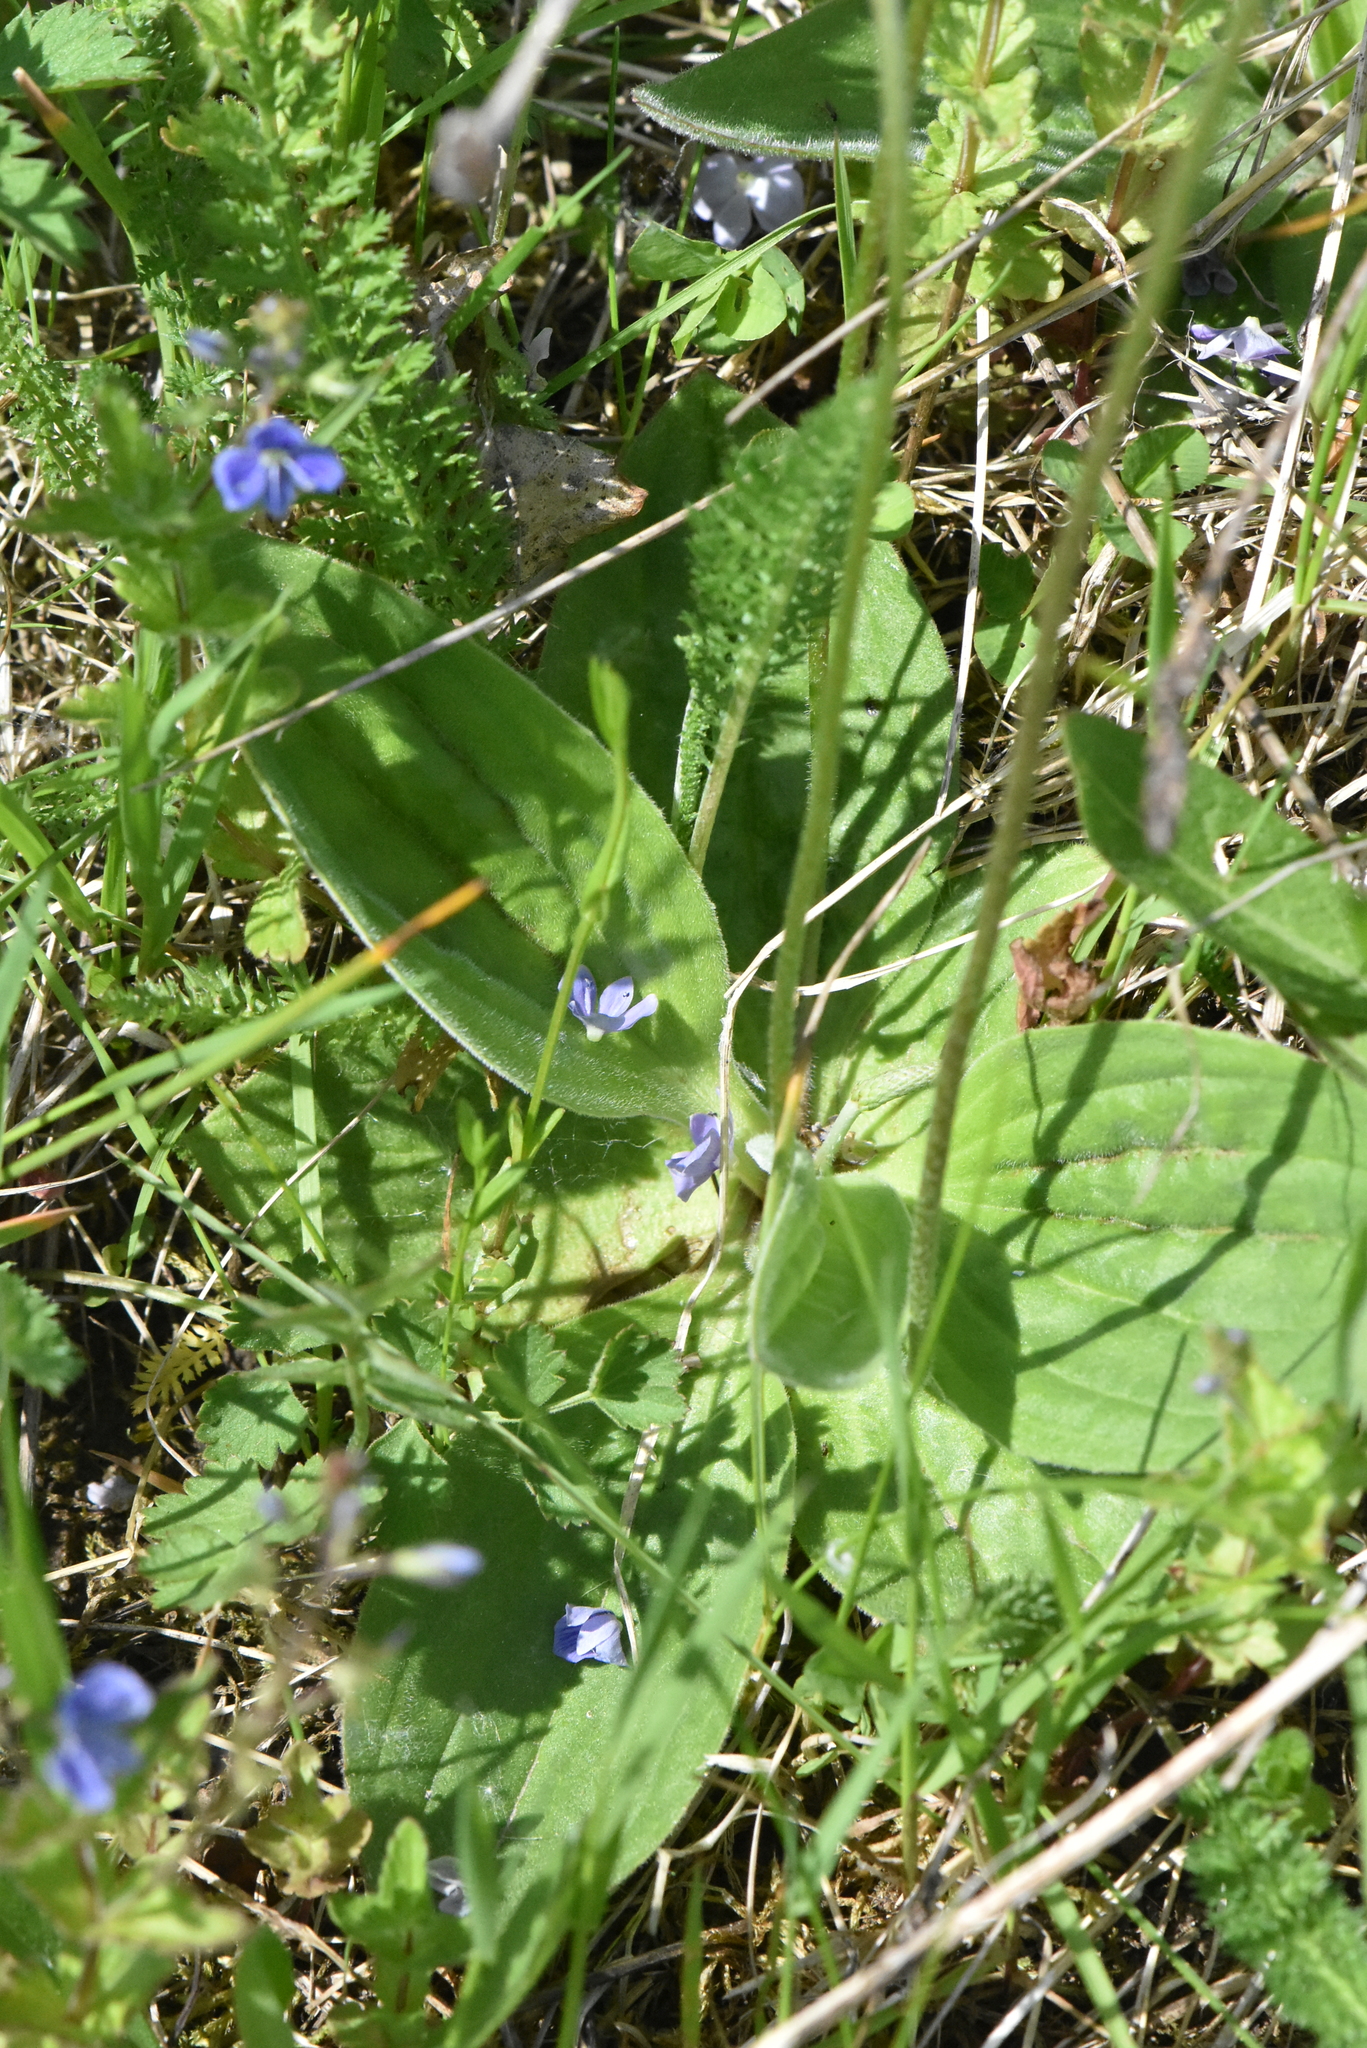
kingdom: Plantae
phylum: Tracheophyta
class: Magnoliopsida
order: Lamiales
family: Plantaginaceae
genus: Plantago
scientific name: Plantago media
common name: Hoary plantain
